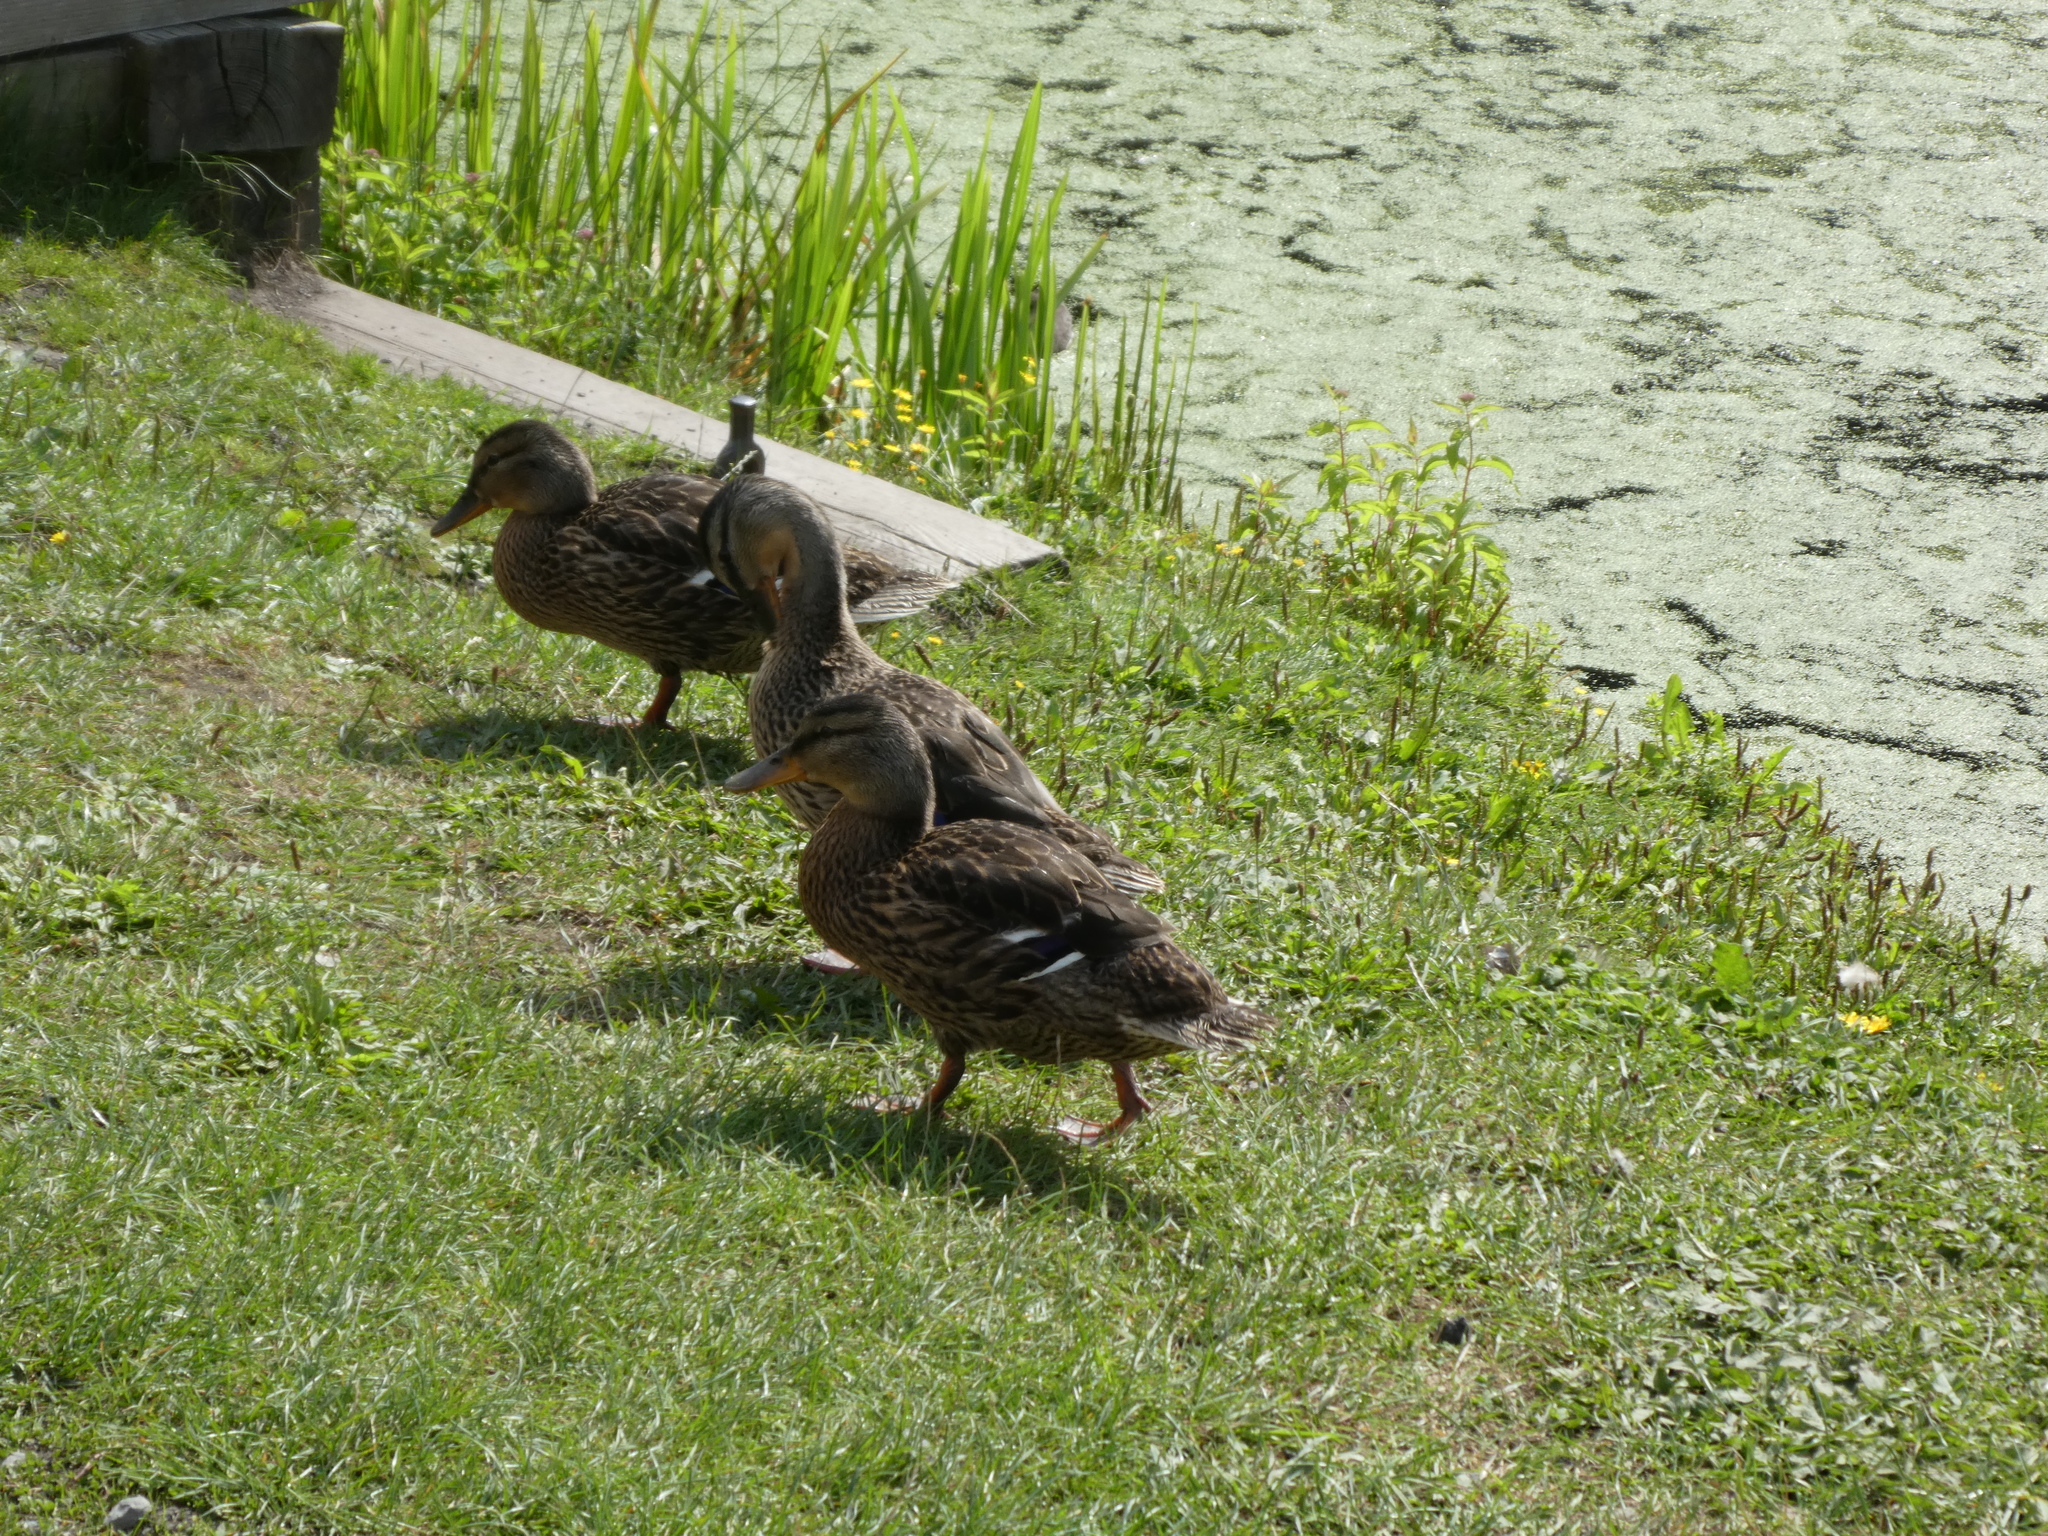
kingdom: Animalia
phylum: Chordata
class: Aves
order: Anseriformes
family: Anatidae
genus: Anas
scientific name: Anas platyrhynchos
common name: Mallard
